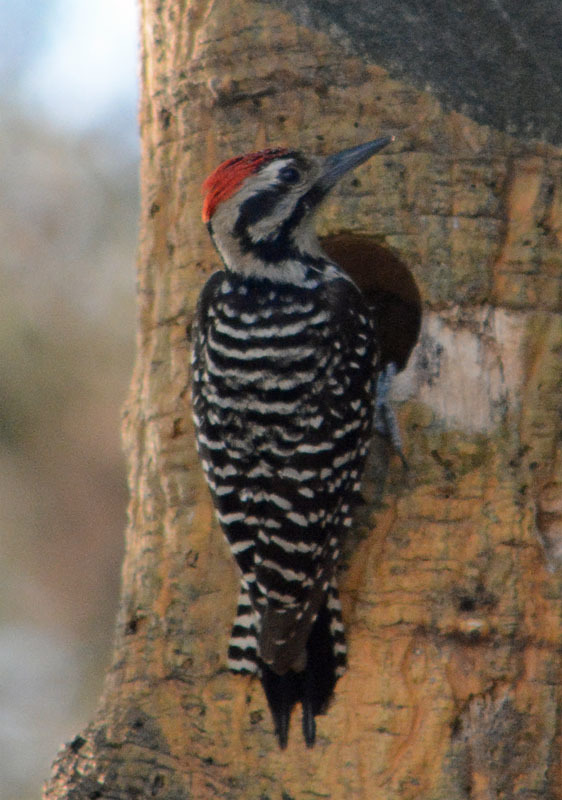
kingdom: Animalia
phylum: Chordata
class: Aves
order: Piciformes
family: Picidae
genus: Dryobates
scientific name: Dryobates scalaris
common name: Ladder-backed woodpecker
